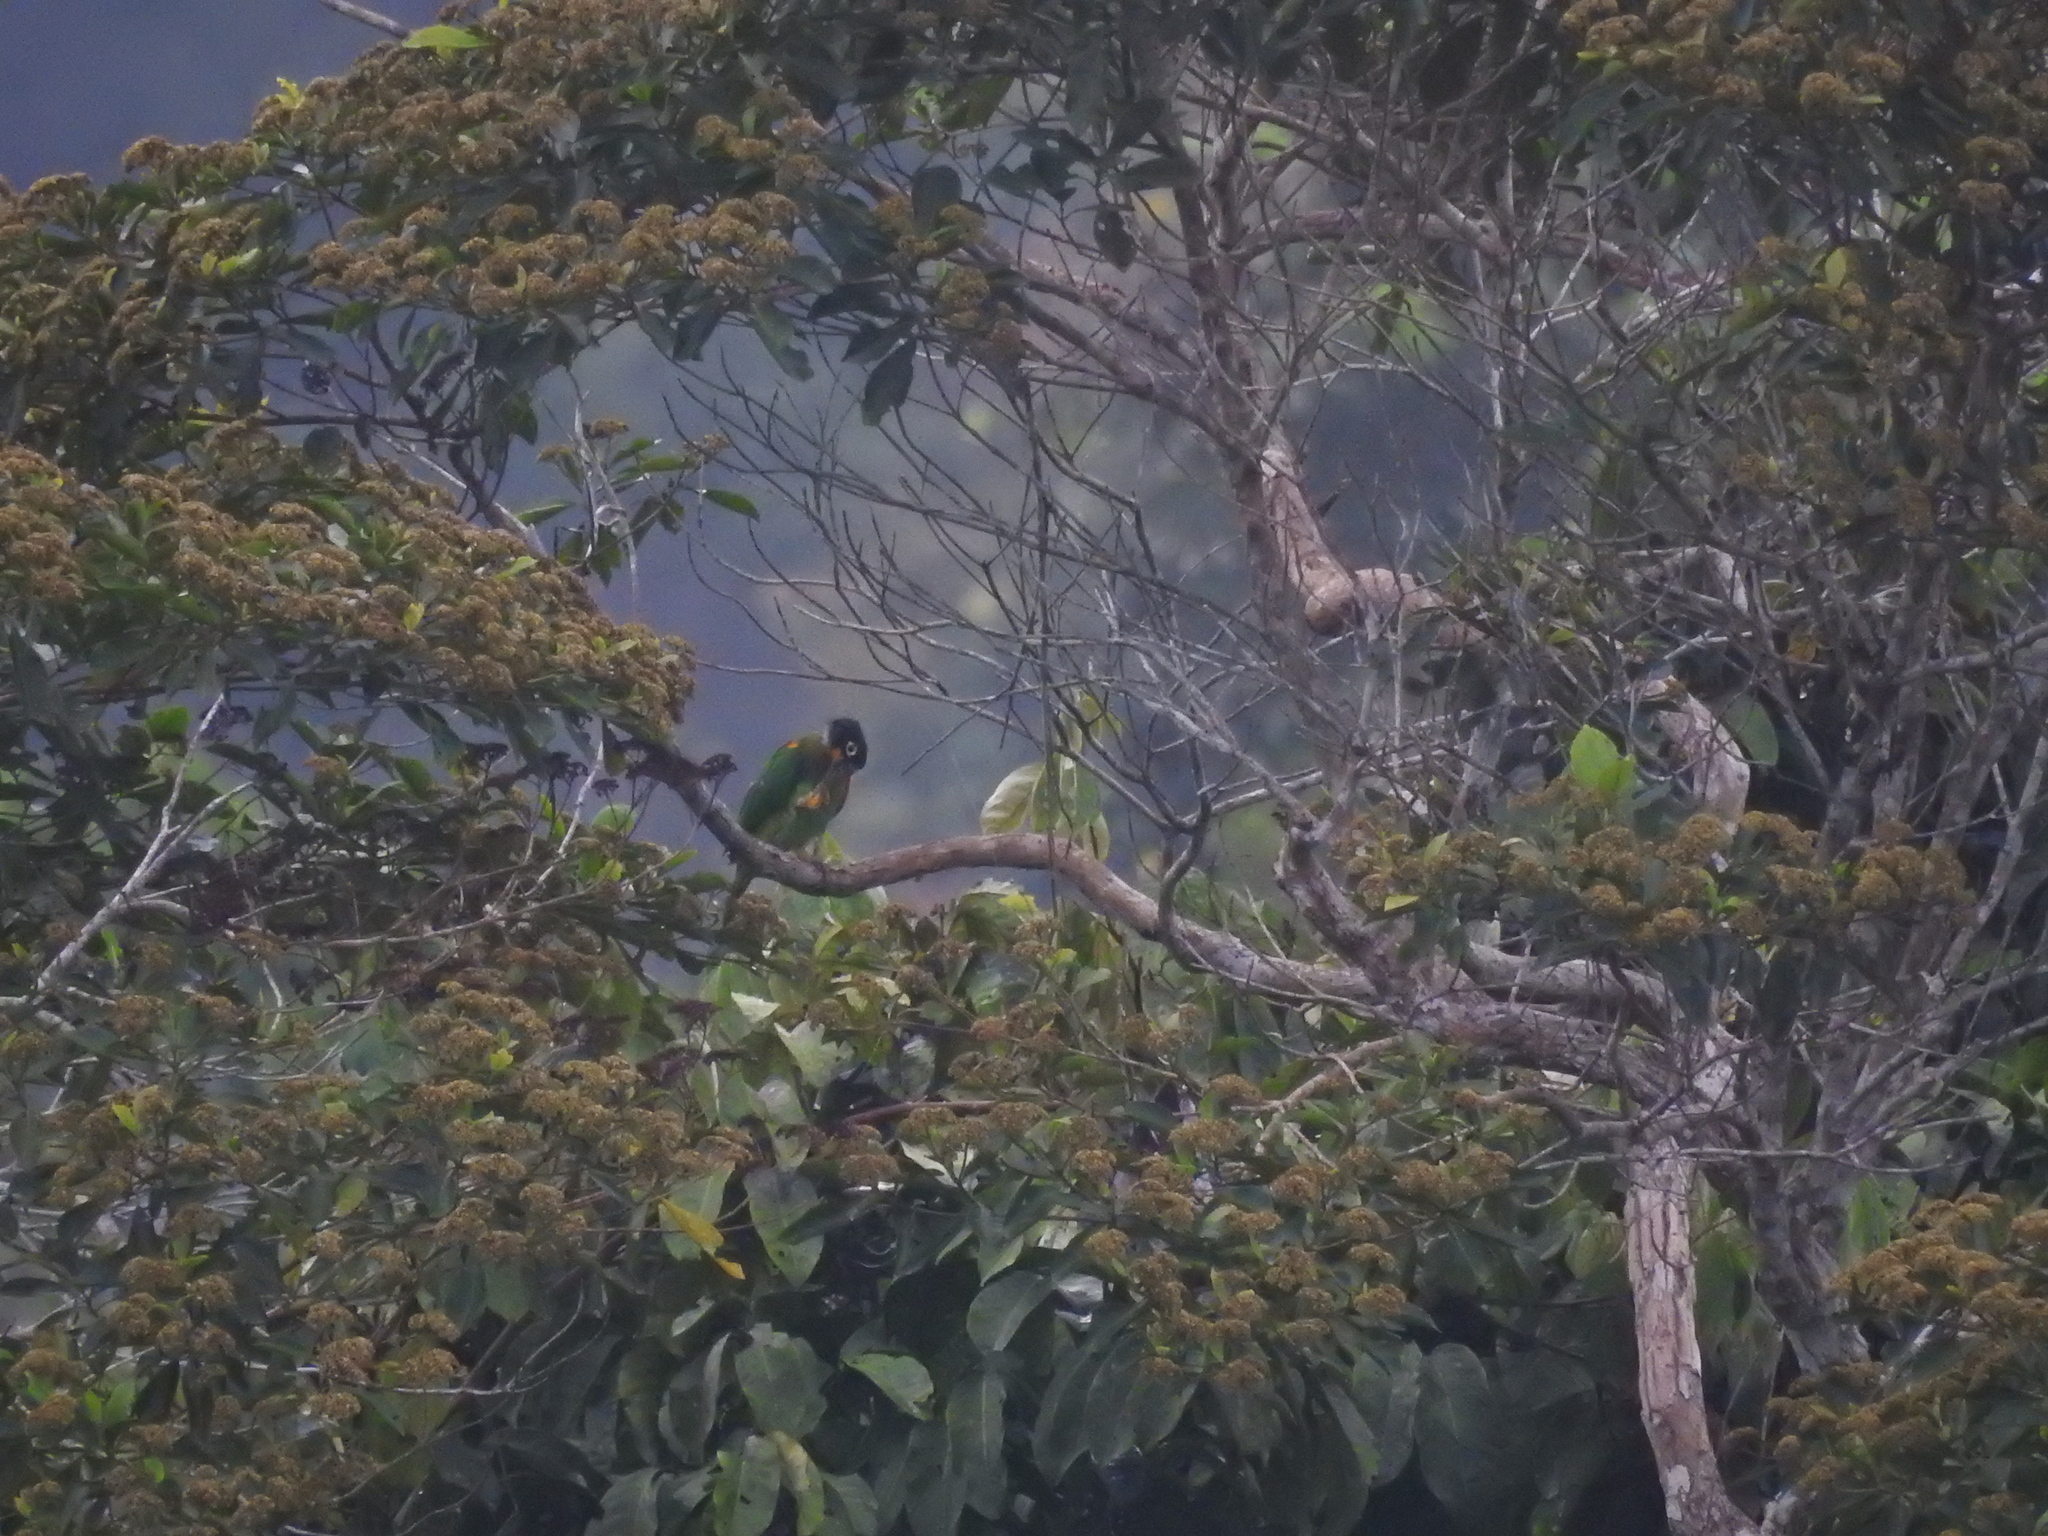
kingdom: Animalia
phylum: Chordata
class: Aves
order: Psittaciformes
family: Psittacidae
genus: Pionopsitta
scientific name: Pionopsitta barrabandi
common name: Orange-cheeked parrot
